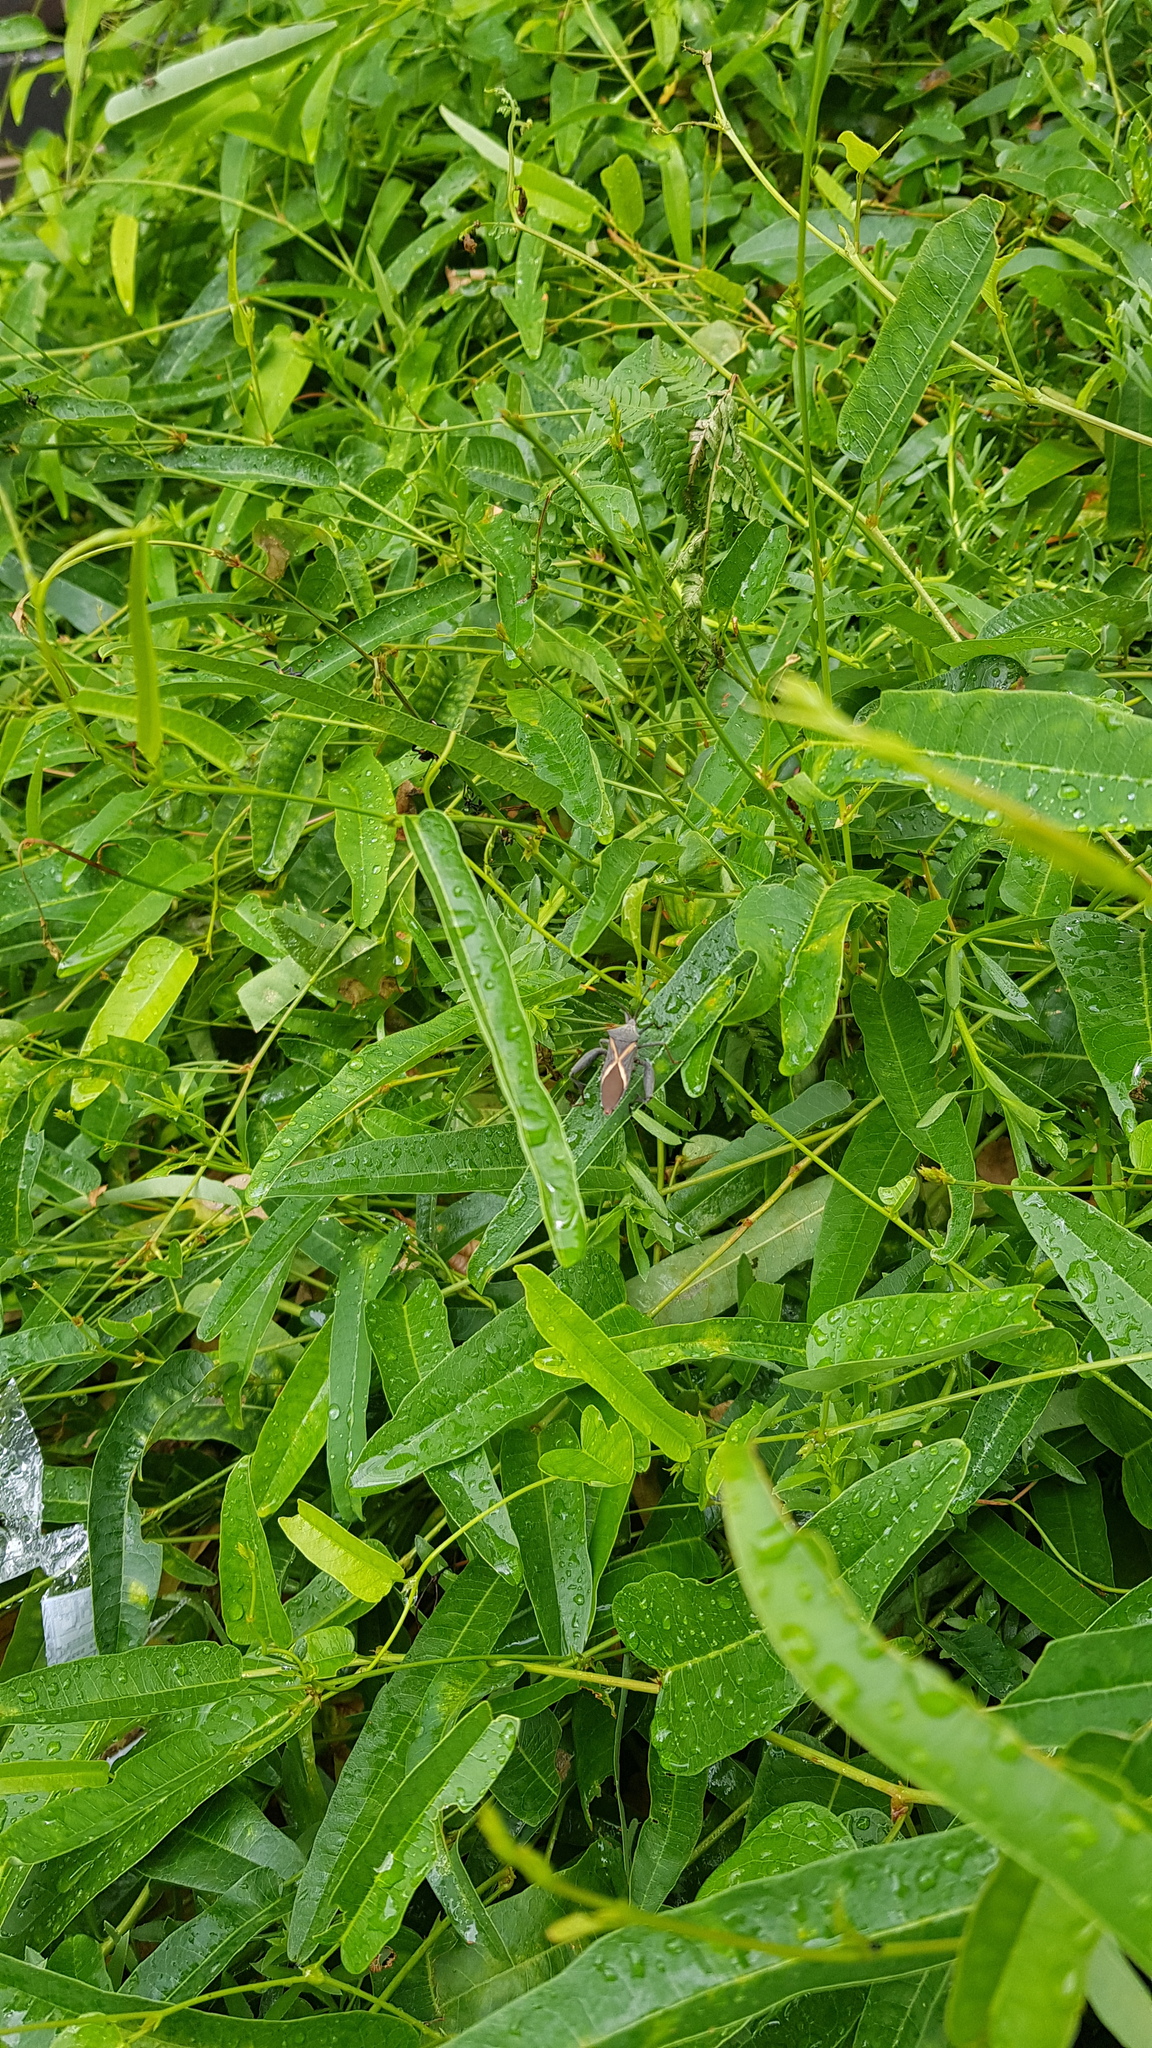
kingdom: Animalia
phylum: Arthropoda
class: Insecta
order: Hemiptera
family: Coreidae
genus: Mictis
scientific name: Mictis profana
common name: Crusader bug
